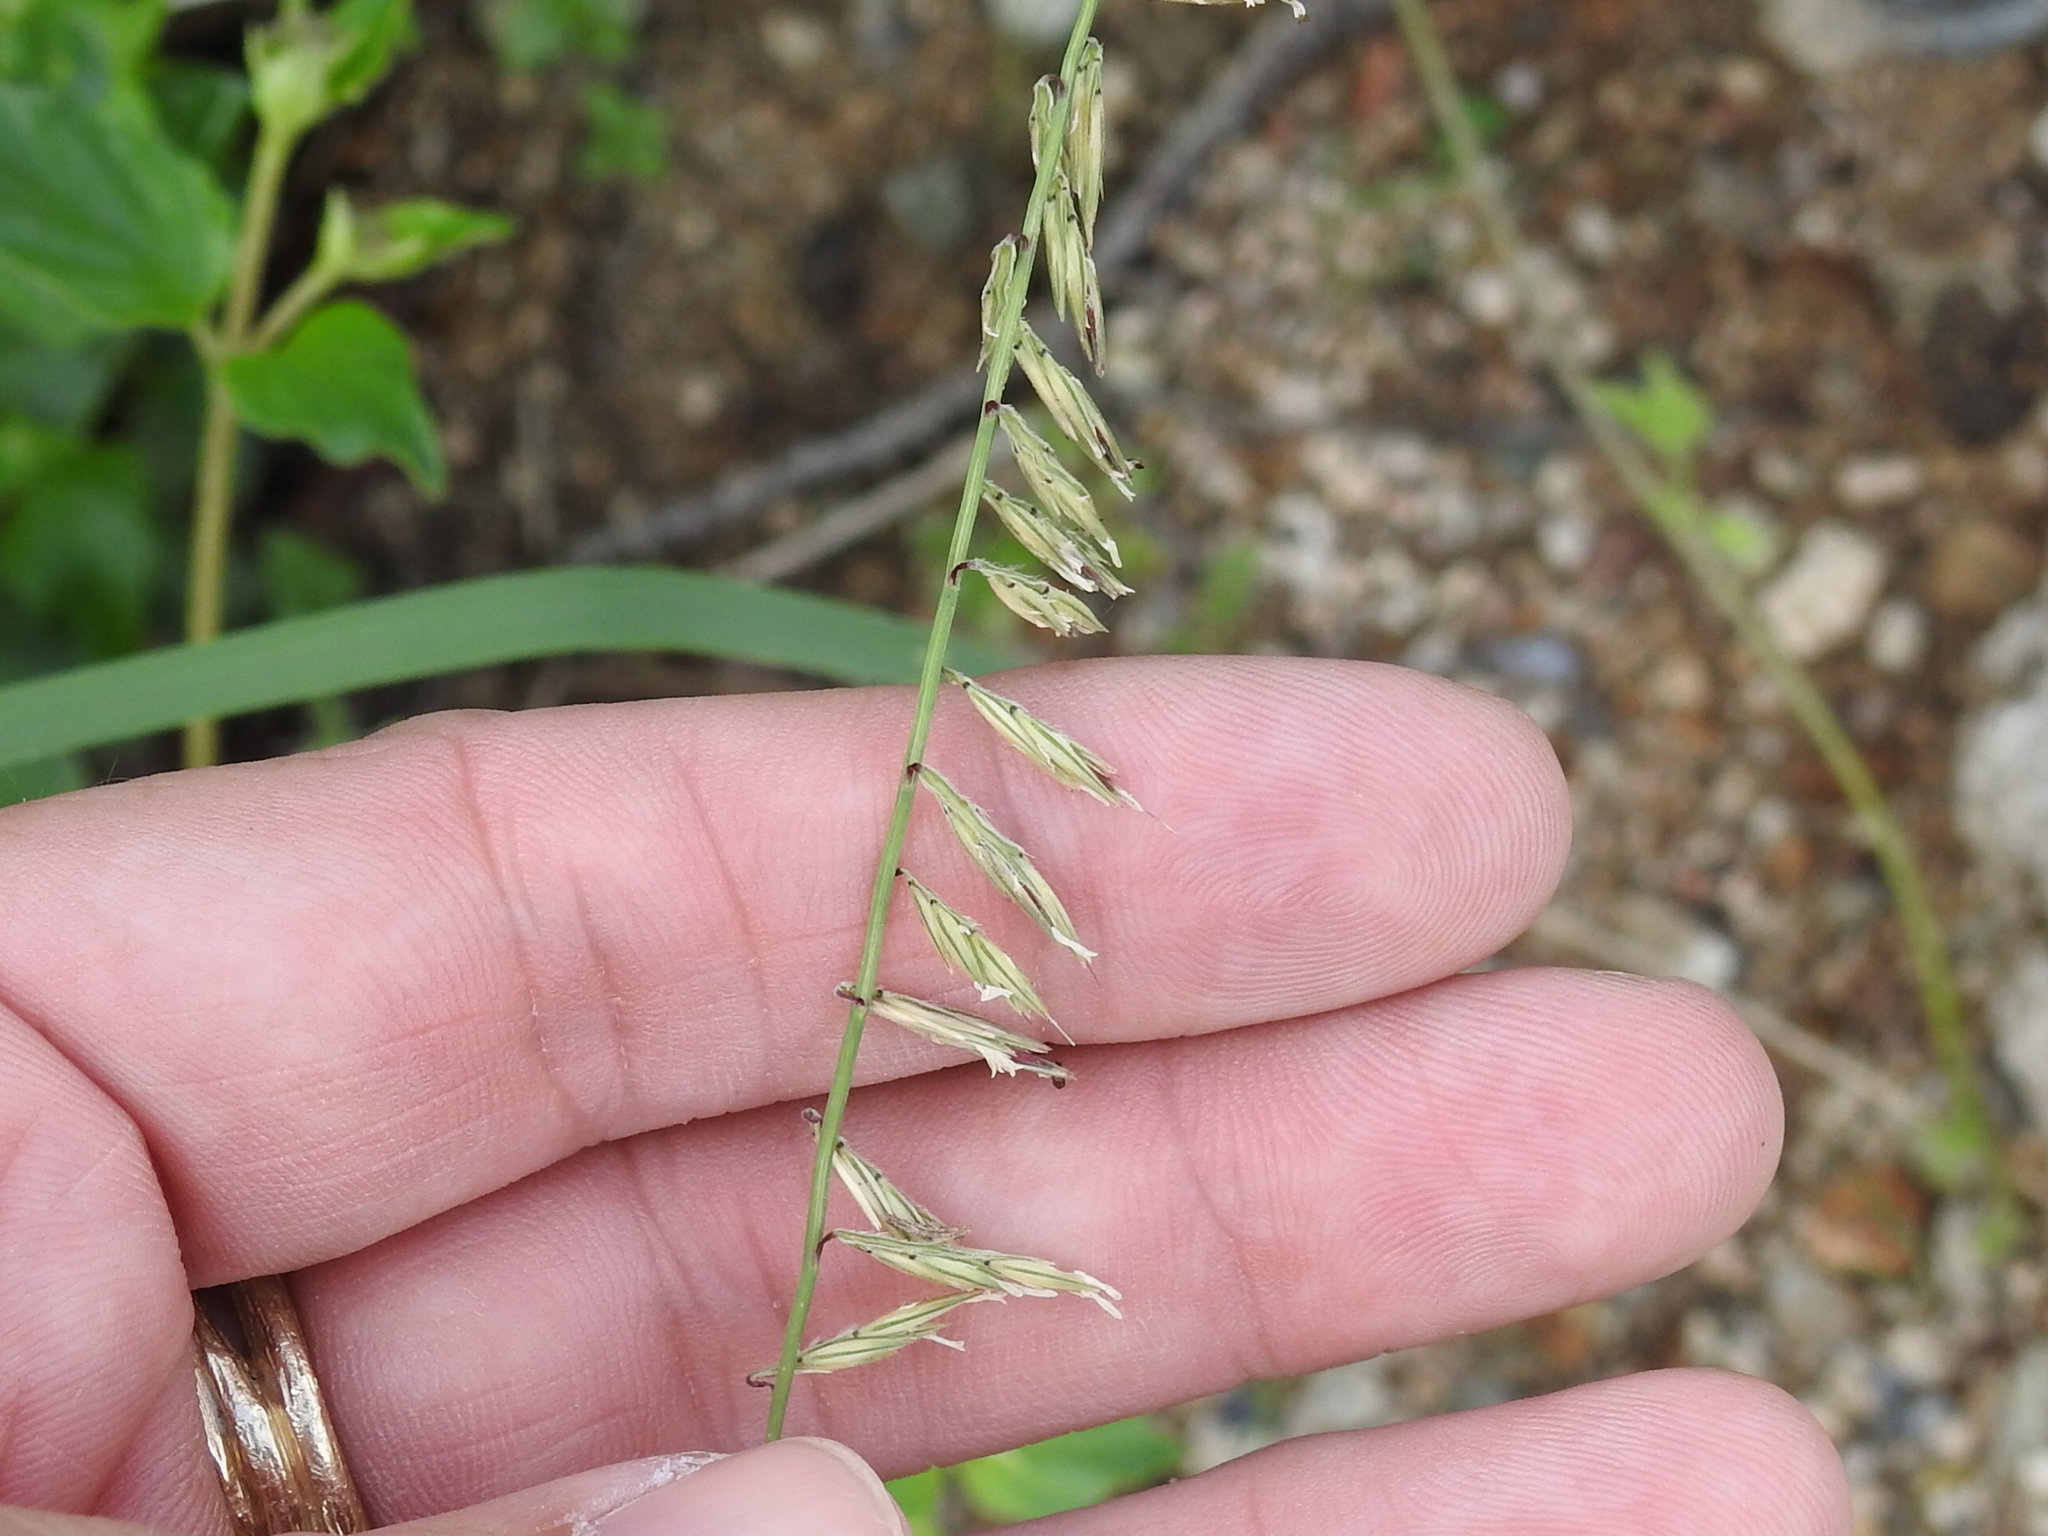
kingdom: Plantae
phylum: Tracheophyta
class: Liliopsida
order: Poales
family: Poaceae
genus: Bouteloua
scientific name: Bouteloua curtipendula
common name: Side-oats grama
